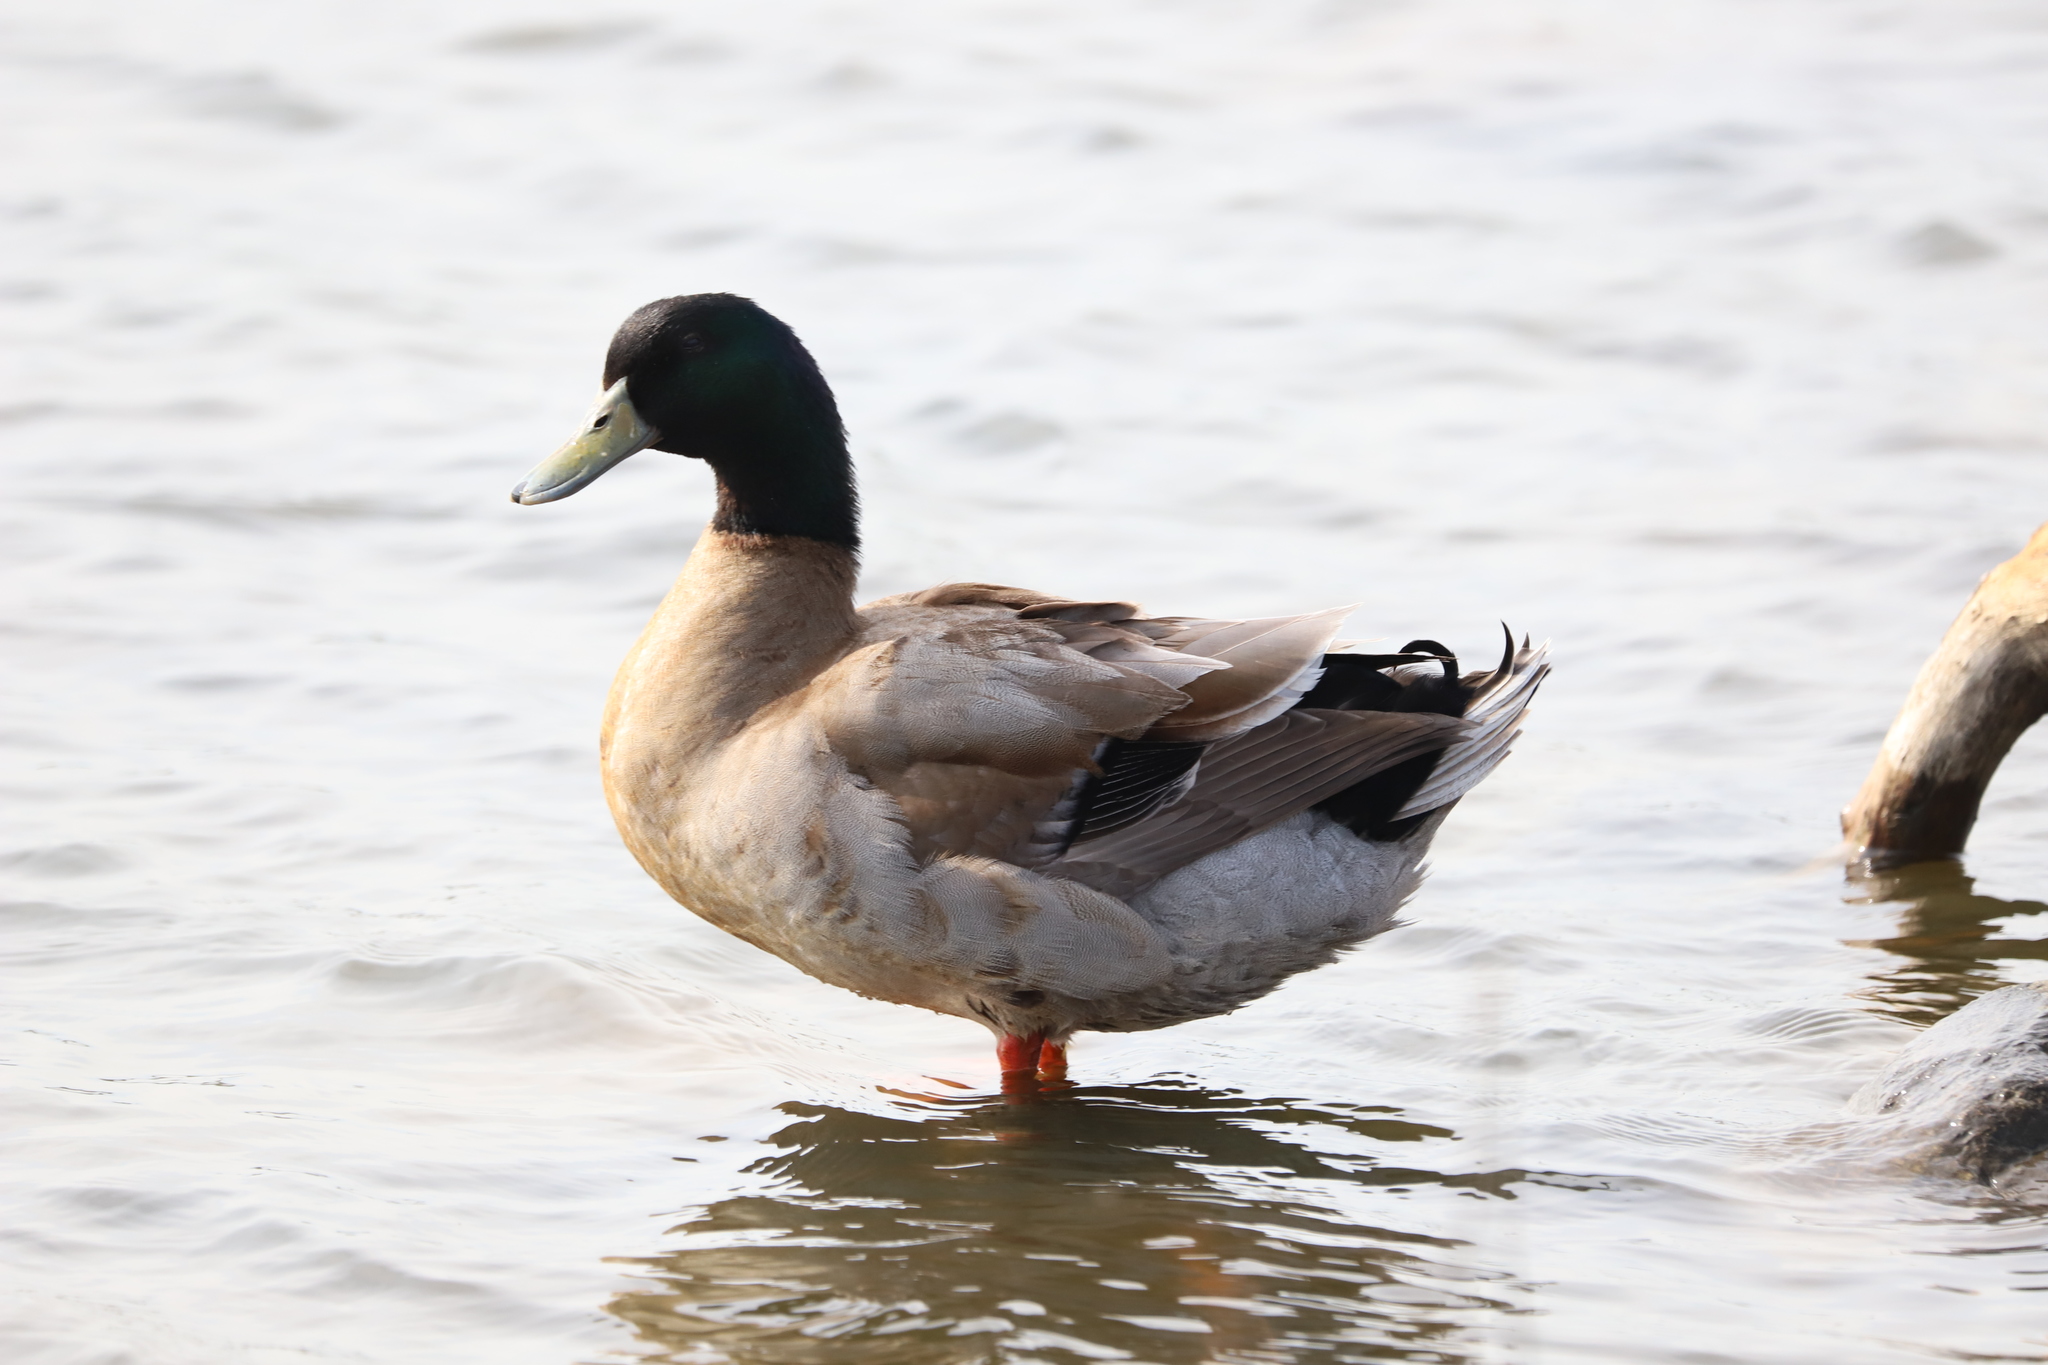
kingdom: Animalia
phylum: Chordata
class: Aves
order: Anseriformes
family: Anatidae
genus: Anas
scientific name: Anas platyrhynchos
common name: Mallard
